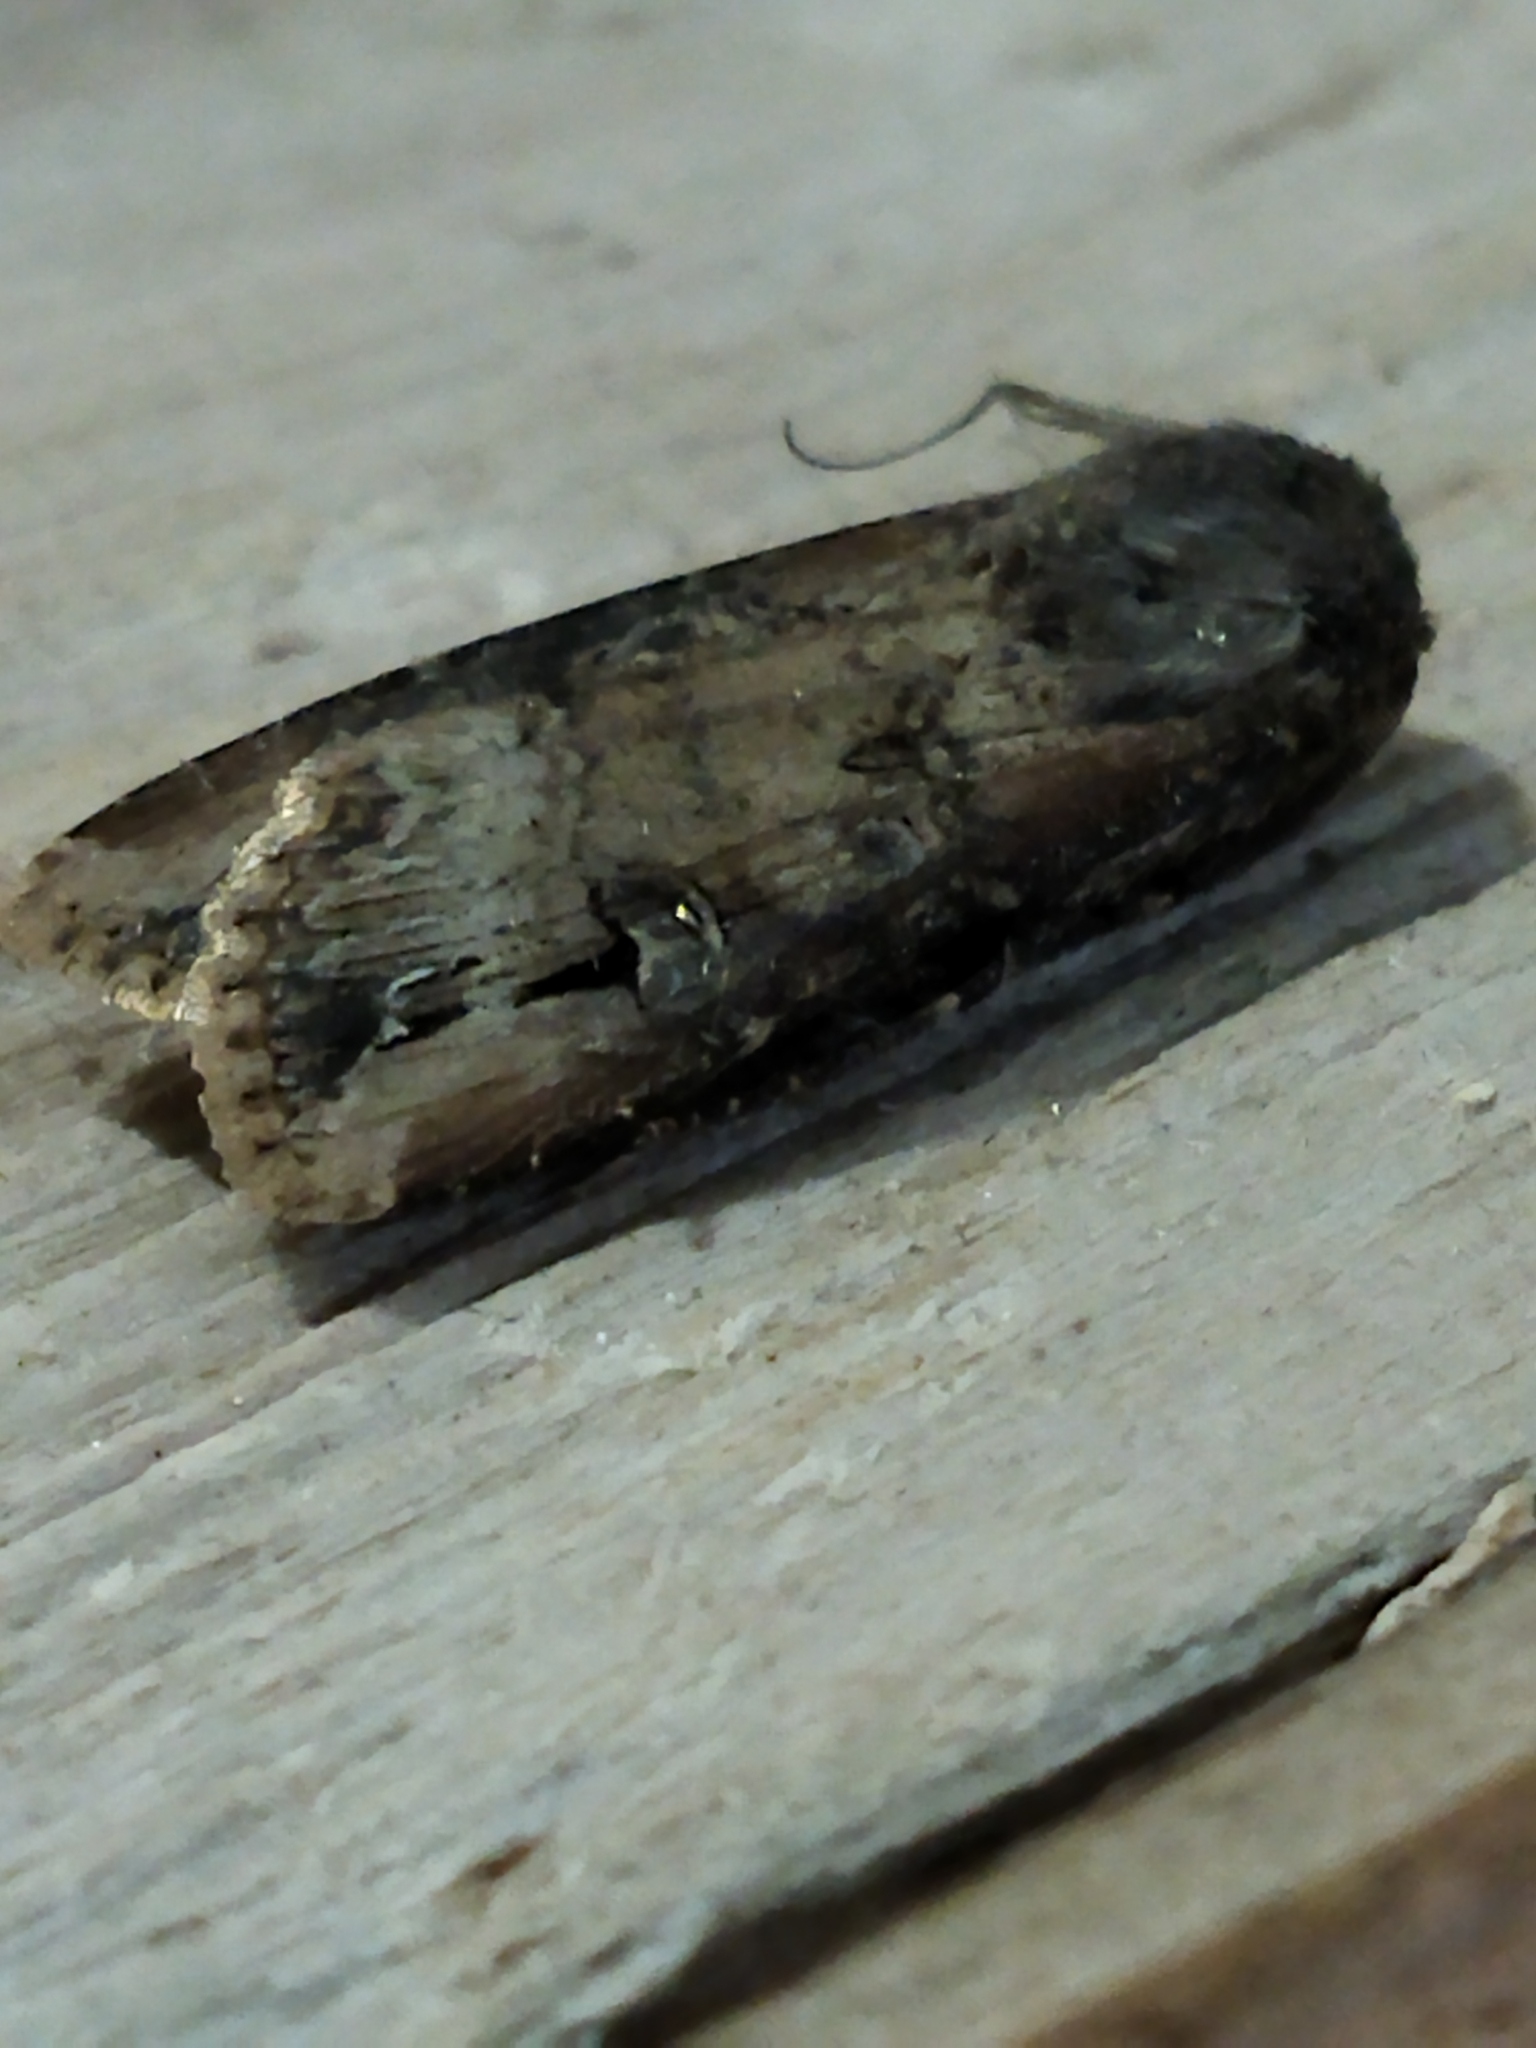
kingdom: Animalia
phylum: Arthropoda
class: Insecta
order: Lepidoptera
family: Noctuidae
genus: Agrotis
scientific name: Agrotis ipsilon
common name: Dark sword-grass
